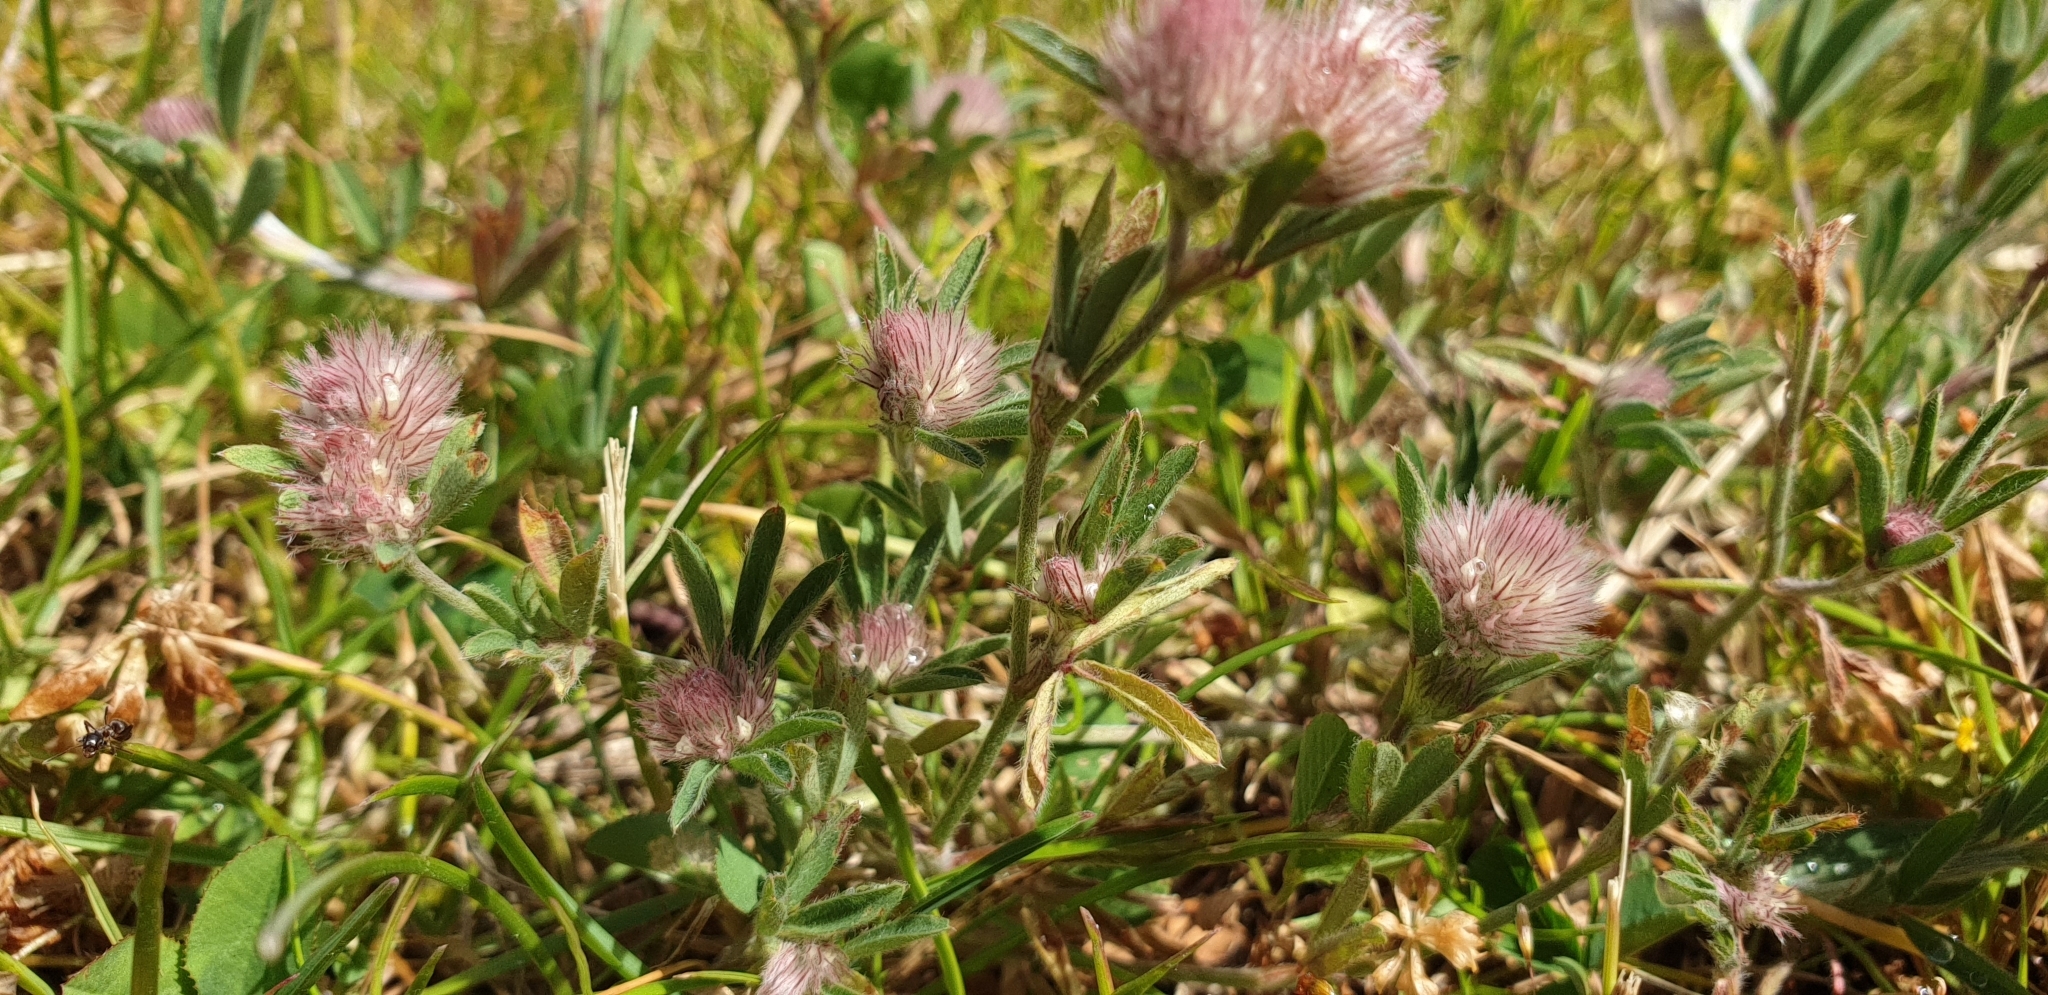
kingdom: Plantae
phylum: Tracheophyta
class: Magnoliopsida
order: Fabales
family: Fabaceae
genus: Trifolium
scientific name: Trifolium arvense
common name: Hare's-foot clover
